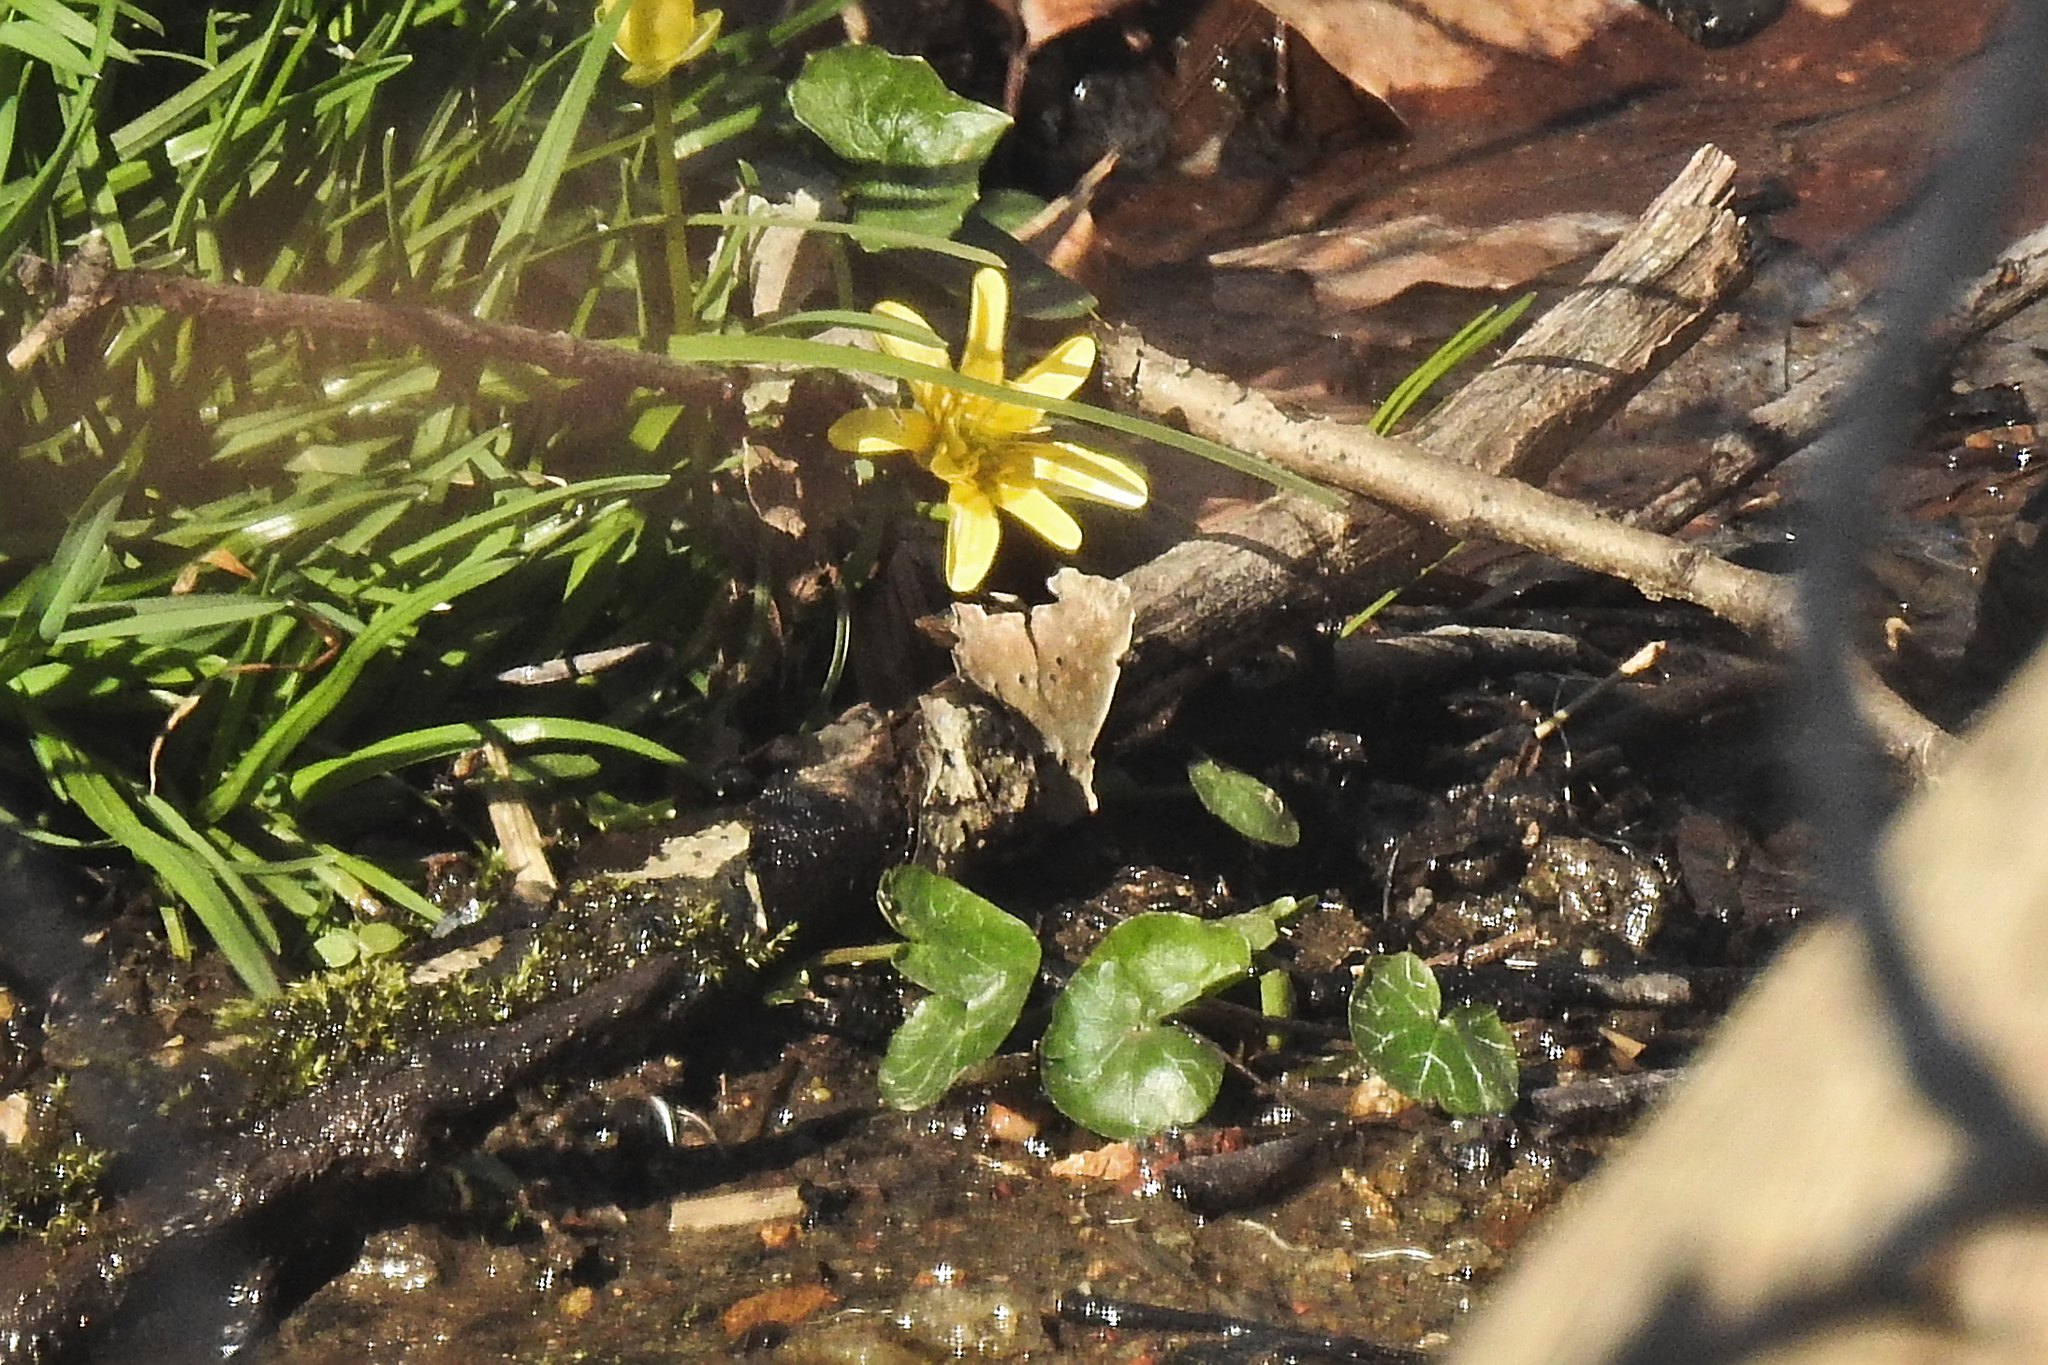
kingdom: Plantae
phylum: Tracheophyta
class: Magnoliopsida
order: Ranunculales
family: Ranunculaceae
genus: Ficaria
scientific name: Ficaria verna
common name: Lesser celandine
